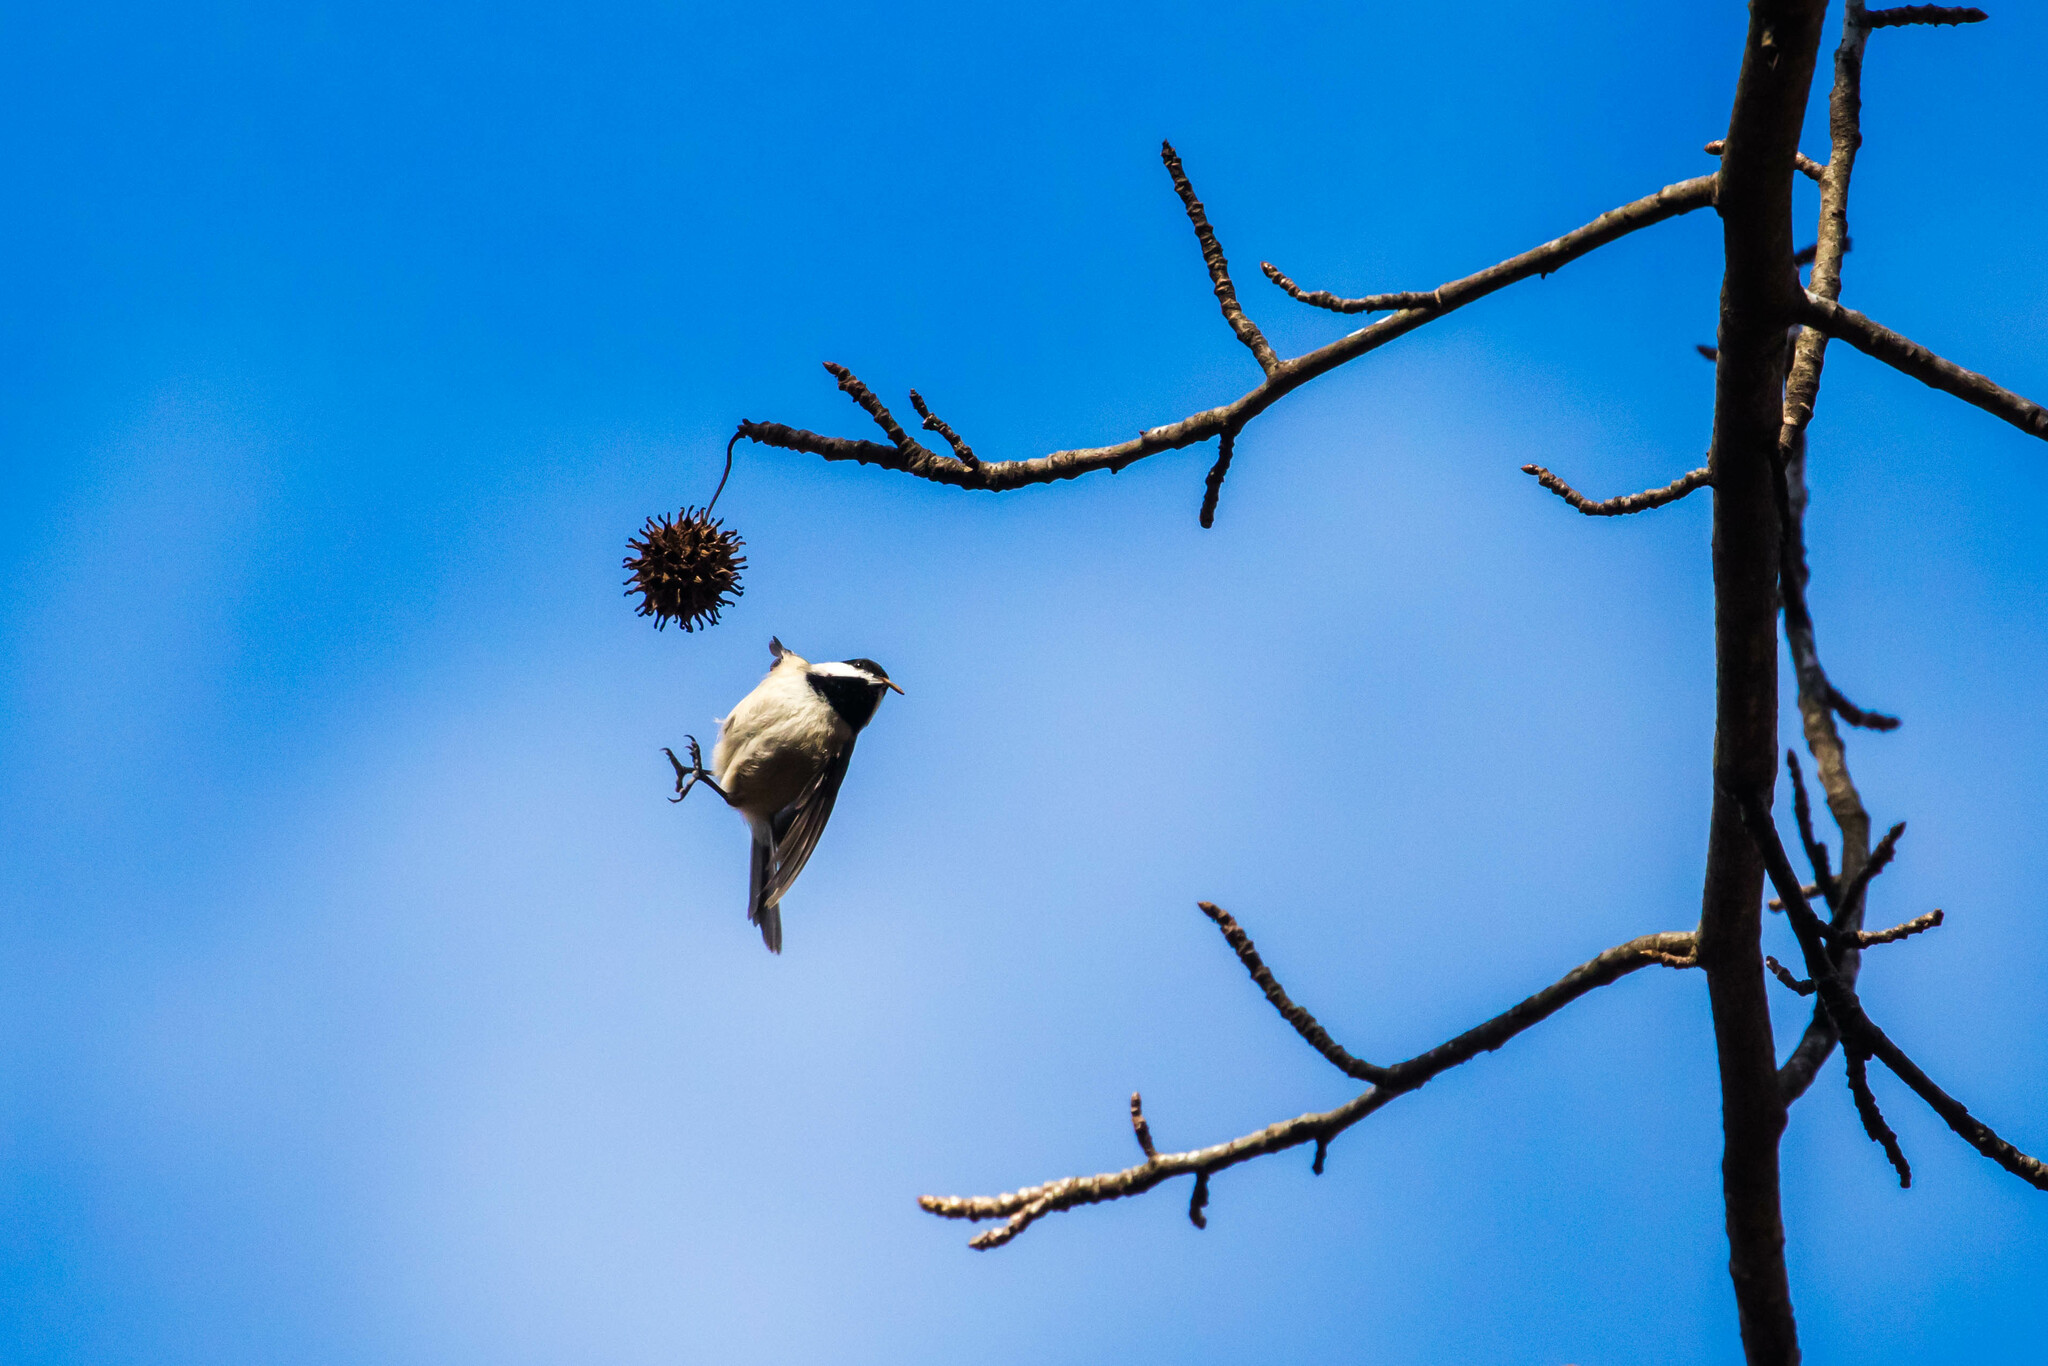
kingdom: Animalia
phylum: Chordata
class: Aves
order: Passeriformes
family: Paridae
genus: Poecile
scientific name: Poecile carolinensis
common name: Carolina chickadee
